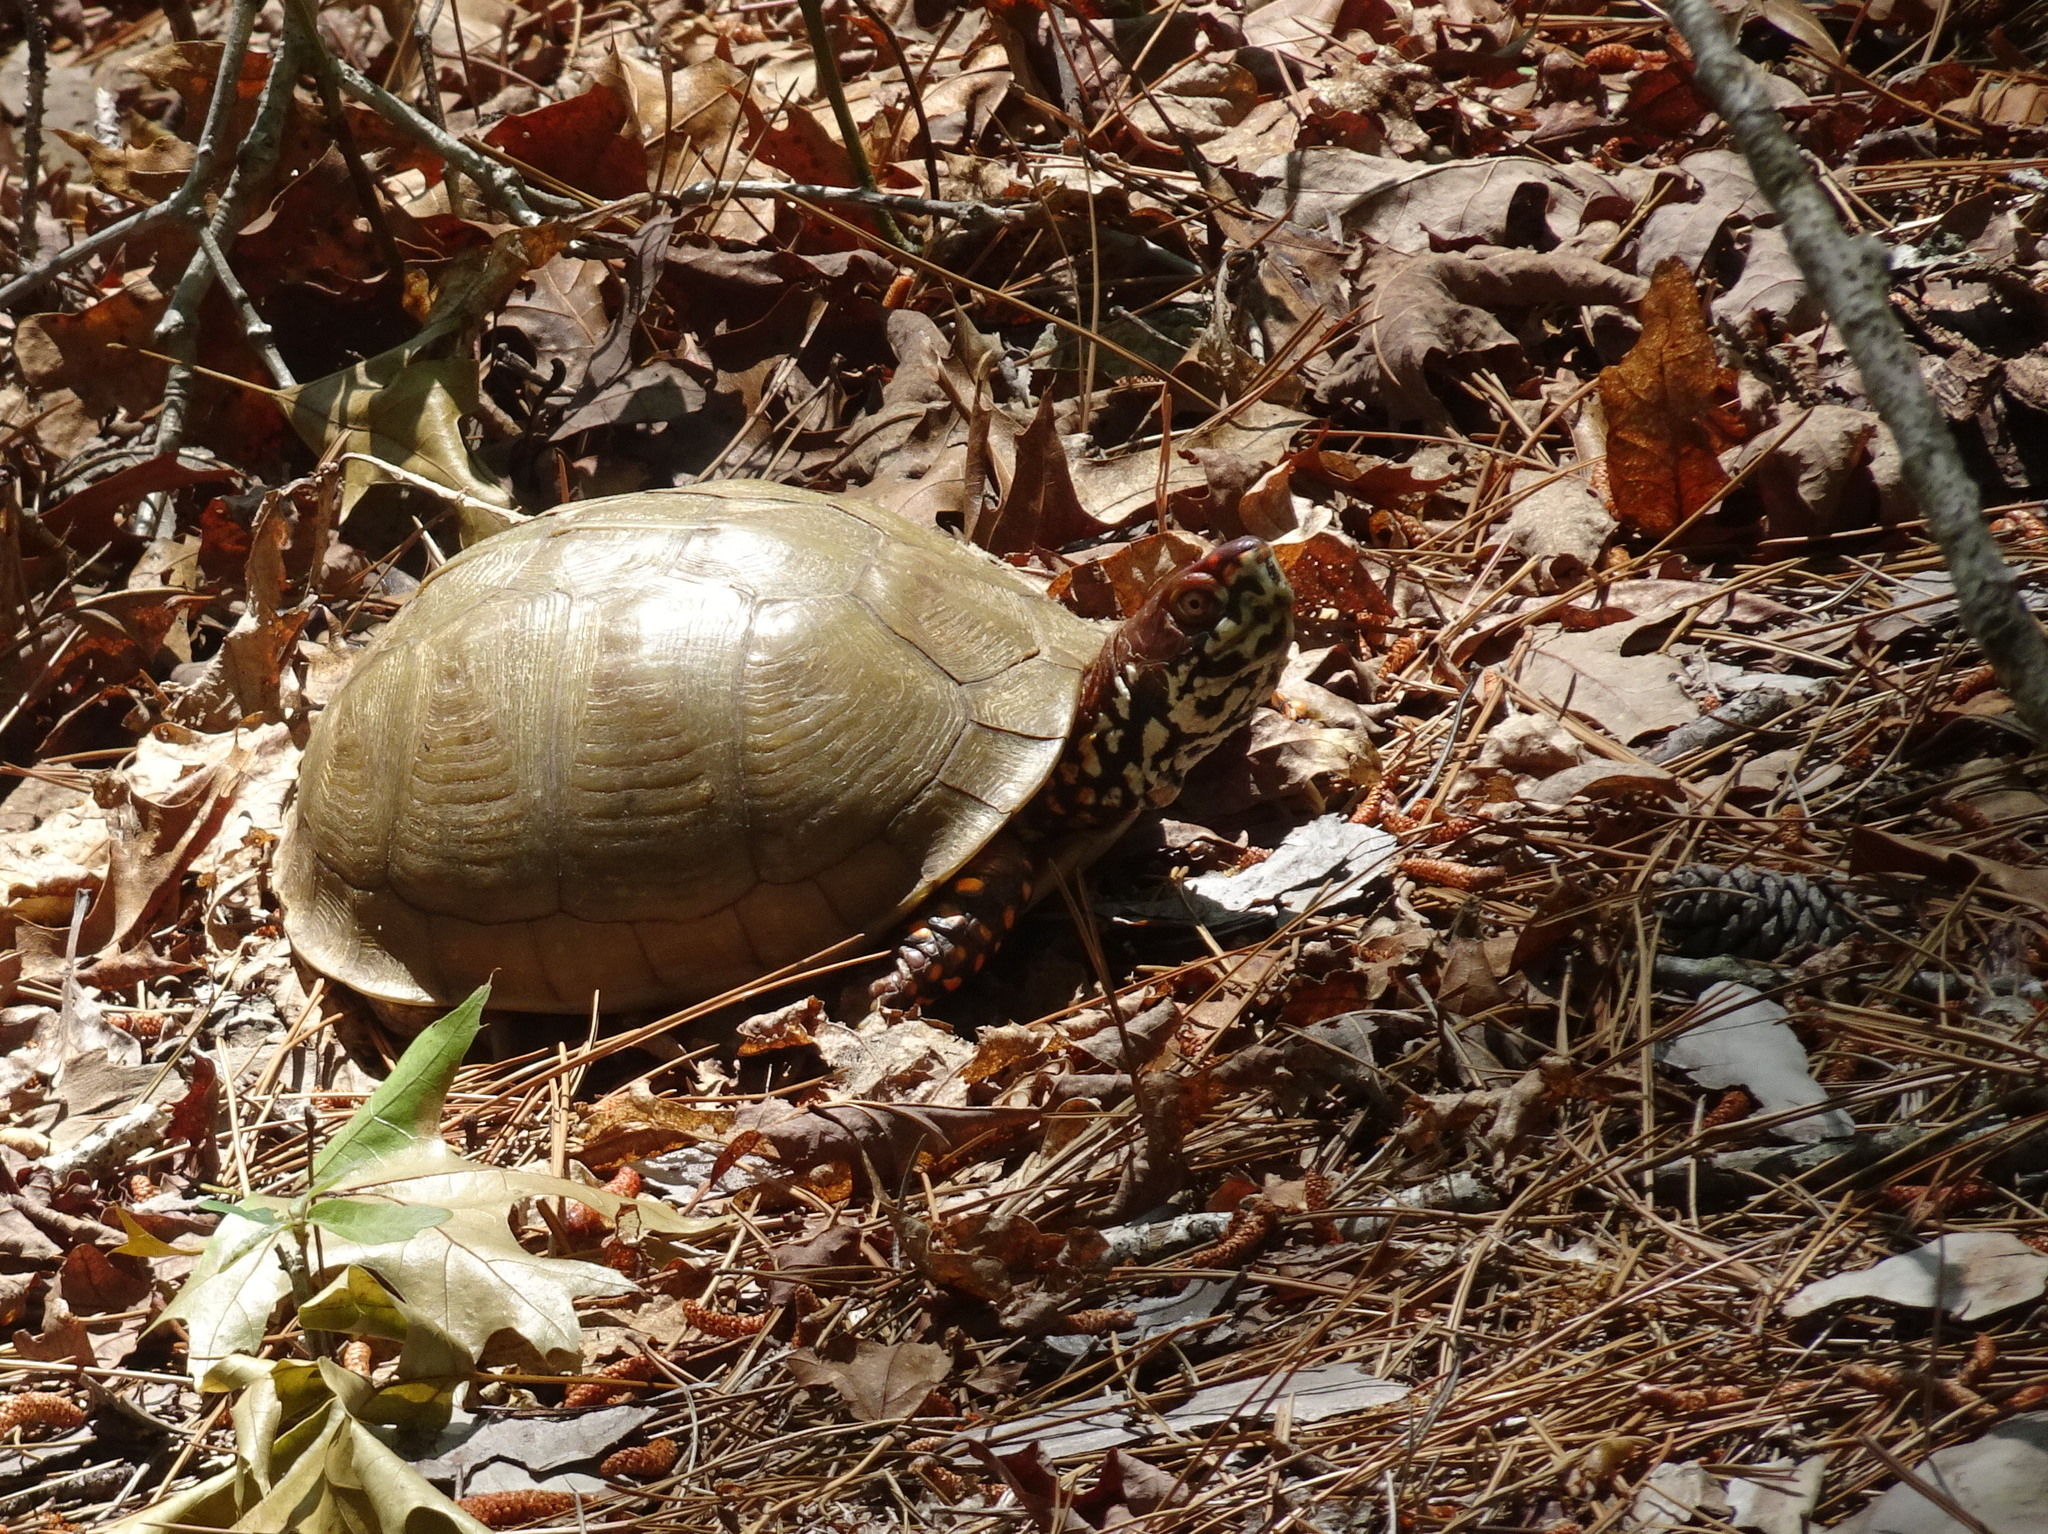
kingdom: Animalia
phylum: Chordata
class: Testudines
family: Emydidae
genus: Terrapene
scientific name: Terrapene carolina
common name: Common box turtle
